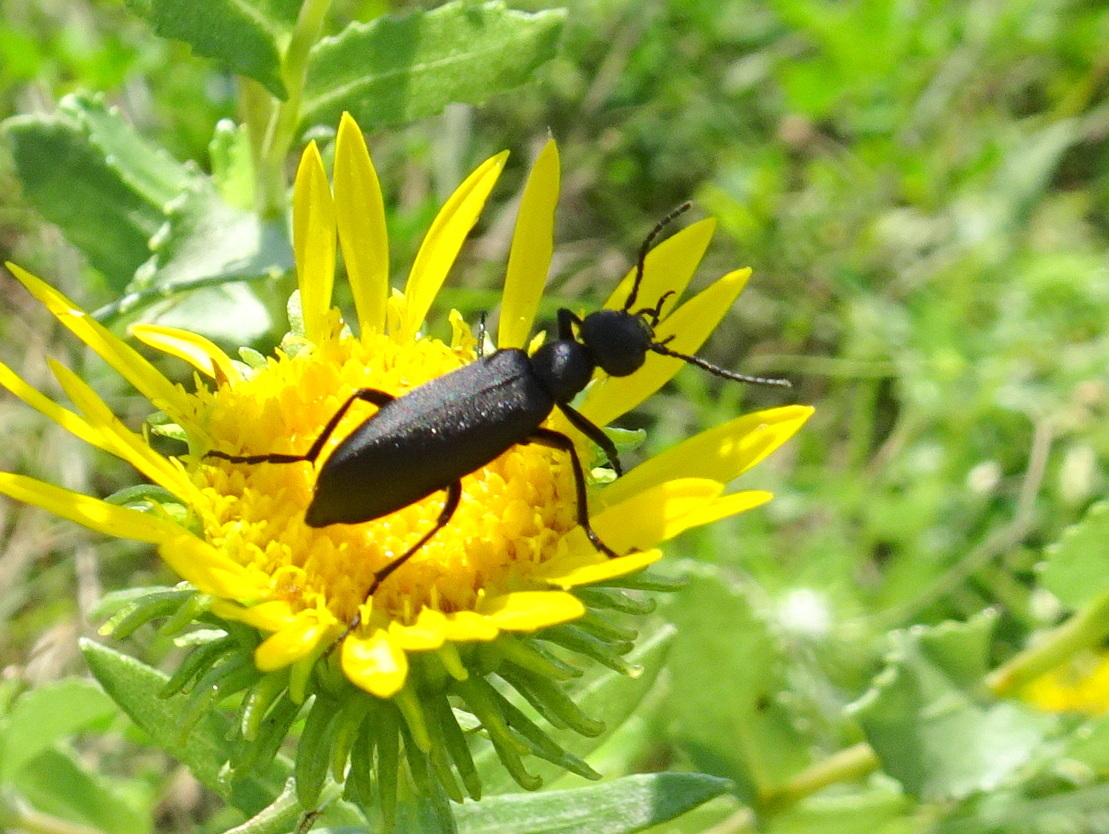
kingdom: Animalia
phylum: Arthropoda
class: Insecta
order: Coleoptera
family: Meloidae
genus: Epicauta
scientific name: Epicauta pensylvanica
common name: Black blister beetle
